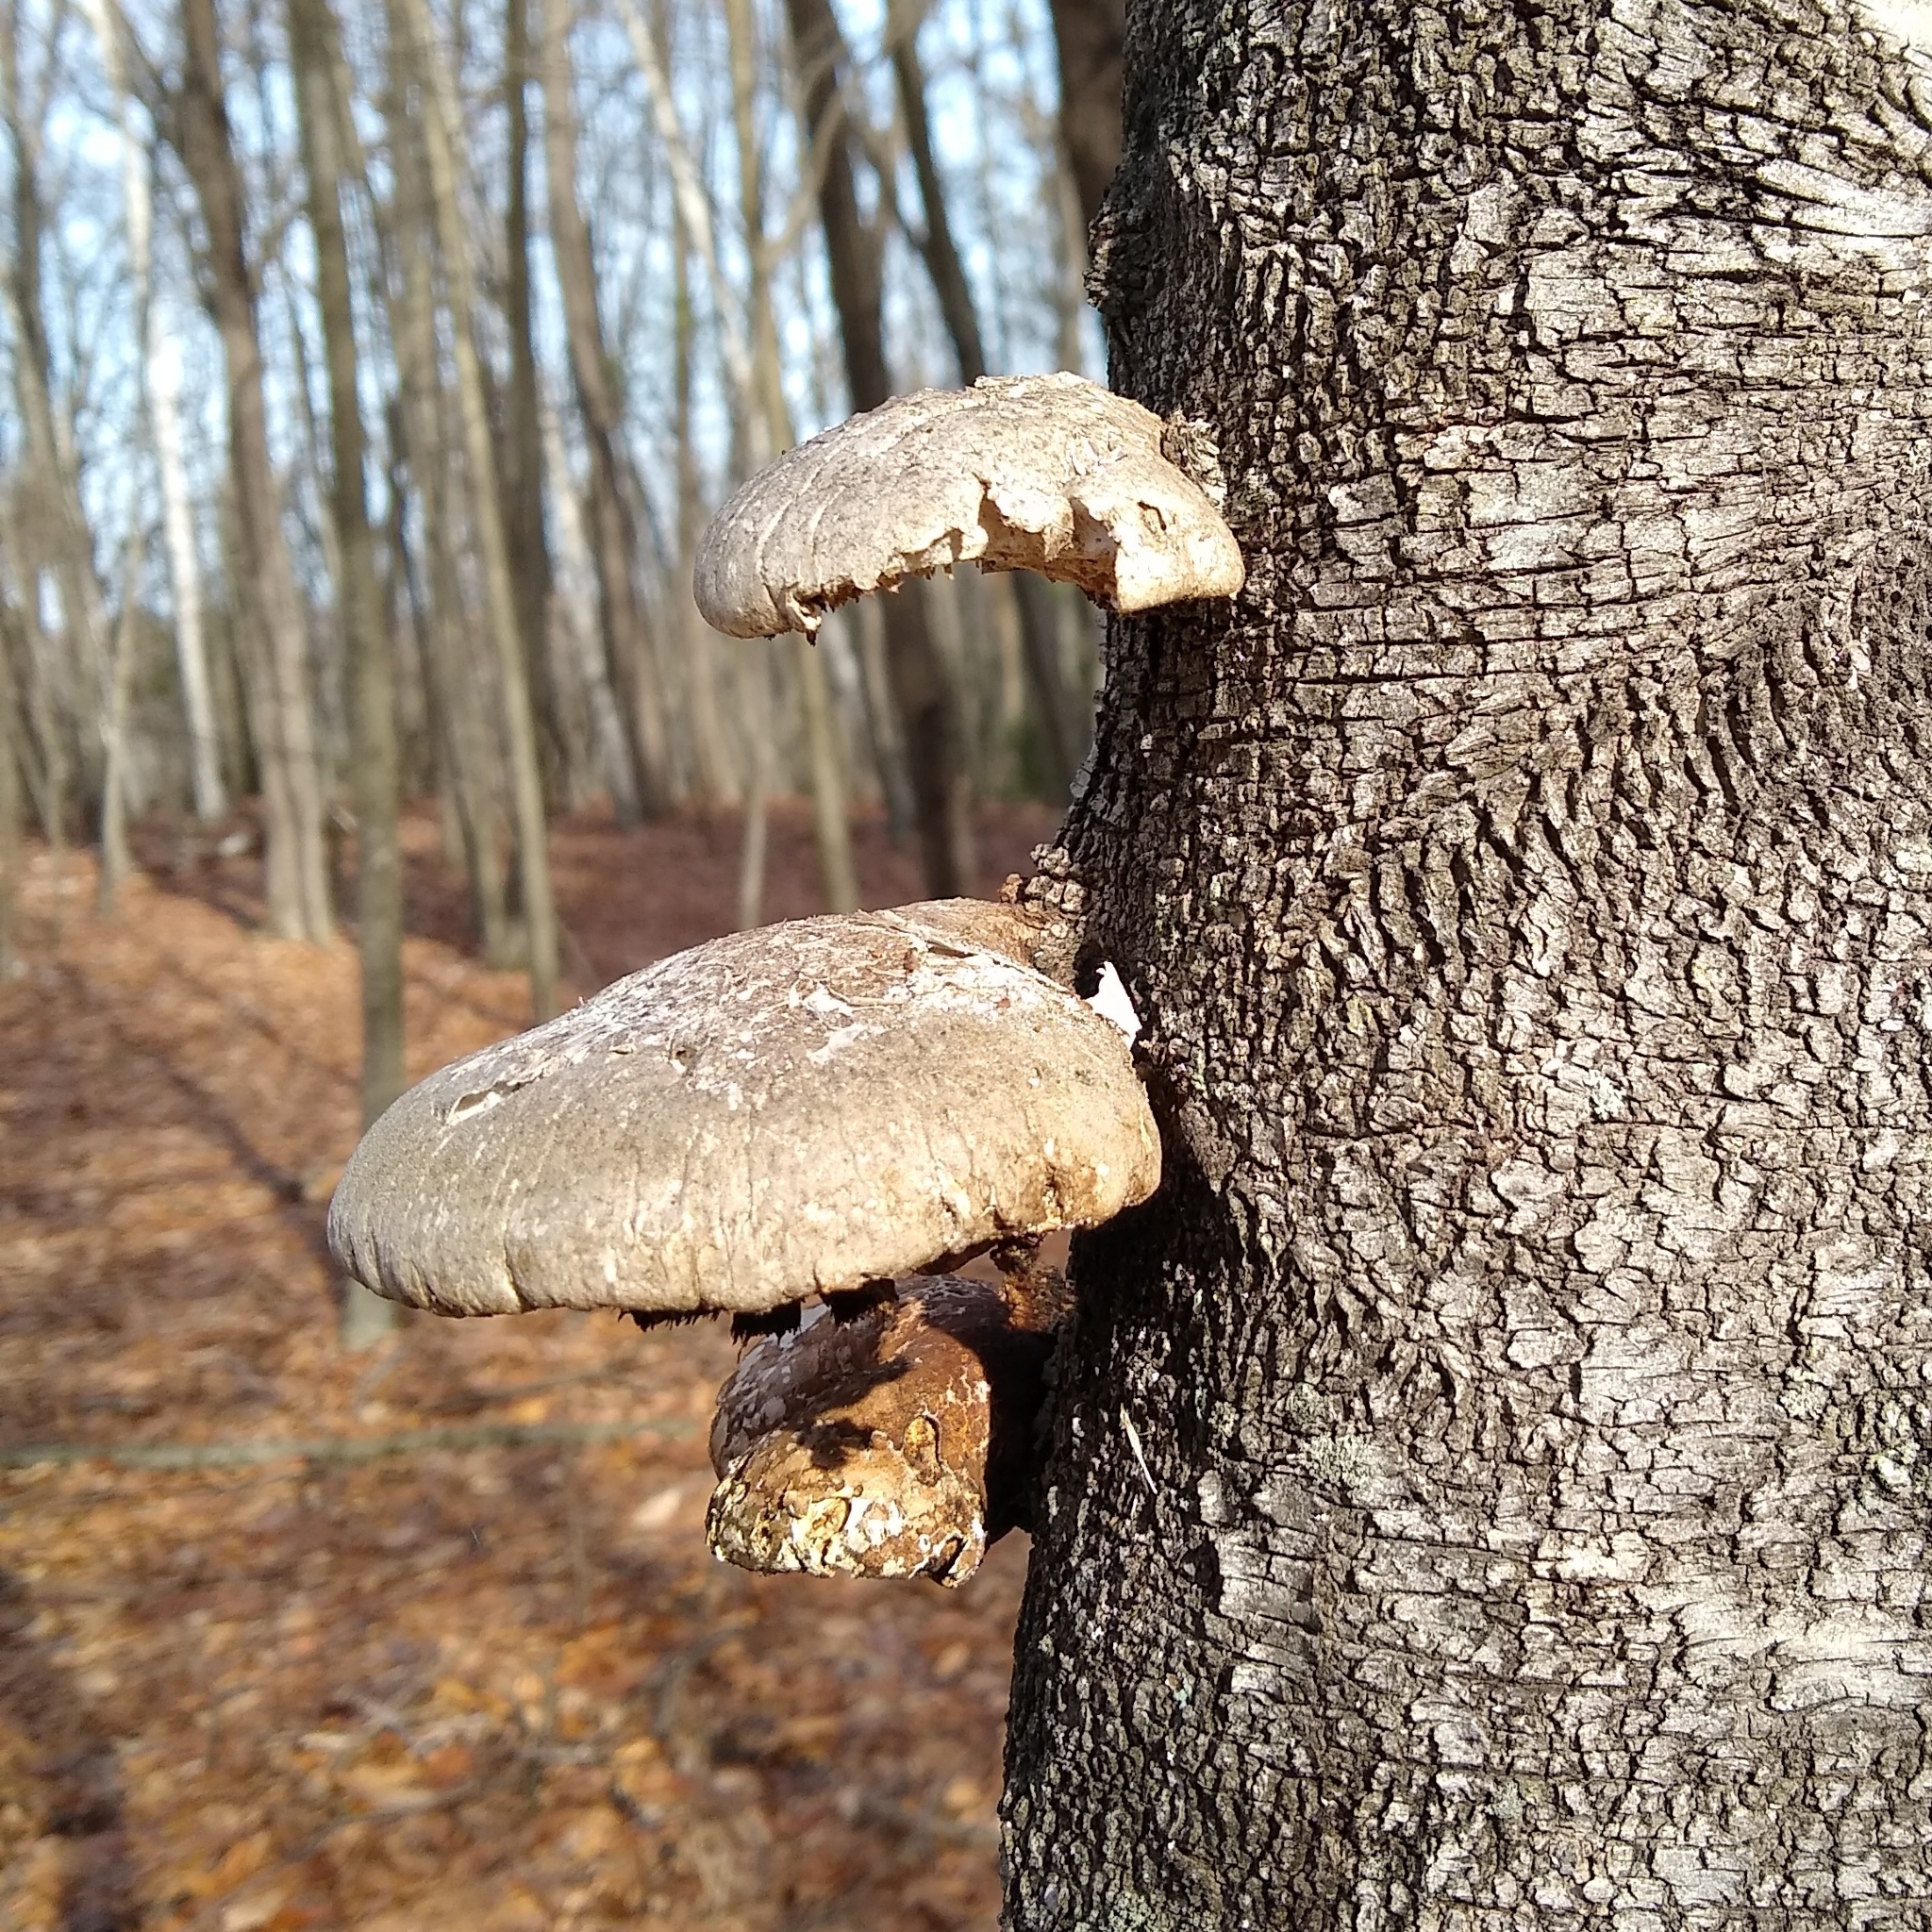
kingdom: Fungi
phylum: Basidiomycota
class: Agaricomycetes
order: Polyporales
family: Fomitopsidaceae
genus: Fomitopsis
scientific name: Fomitopsis betulina
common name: Birch polypore
